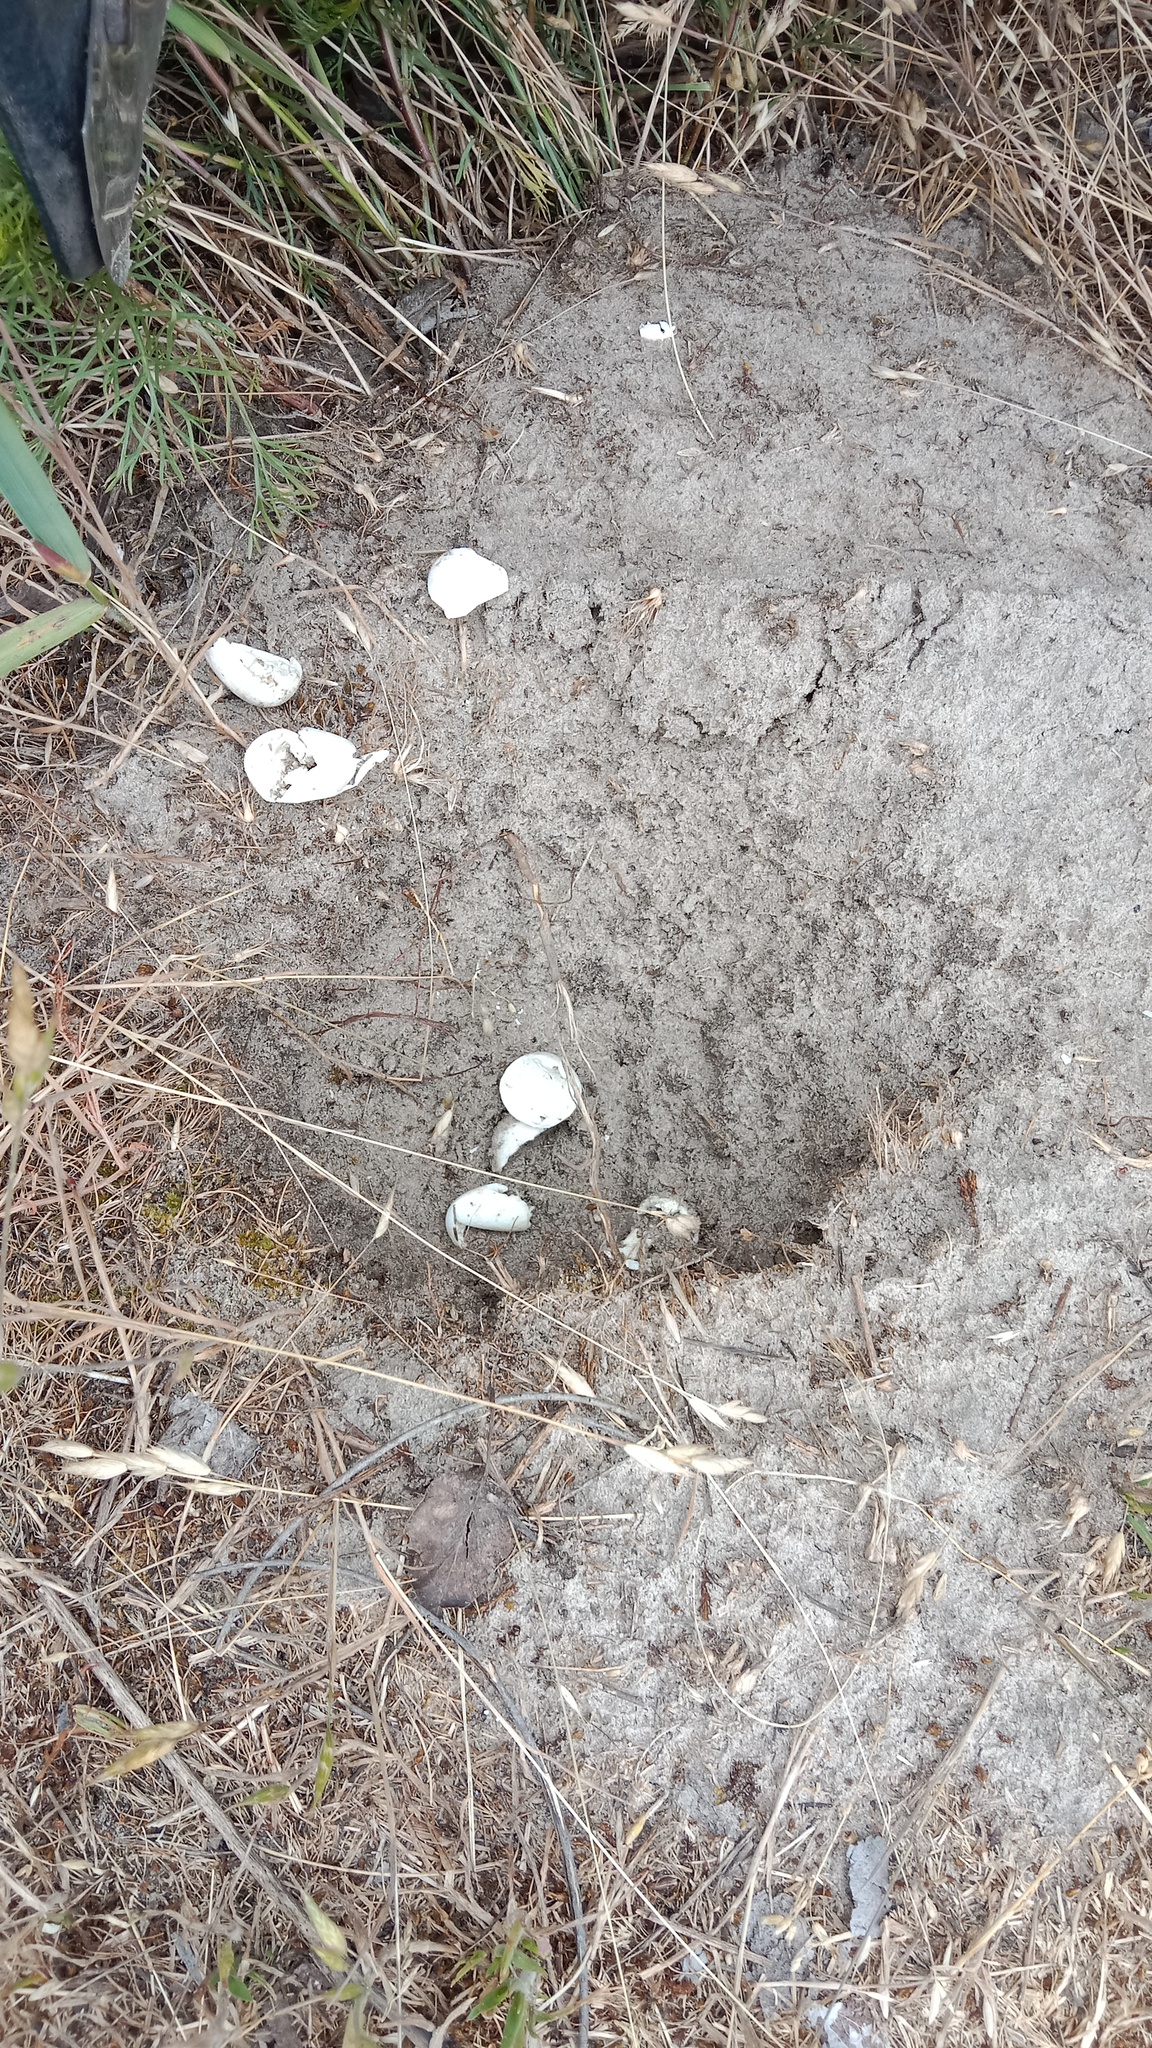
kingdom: Animalia
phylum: Chordata
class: Testudines
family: Emydidae
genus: Emys
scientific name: Emys orbicularis
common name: European pond turtle
